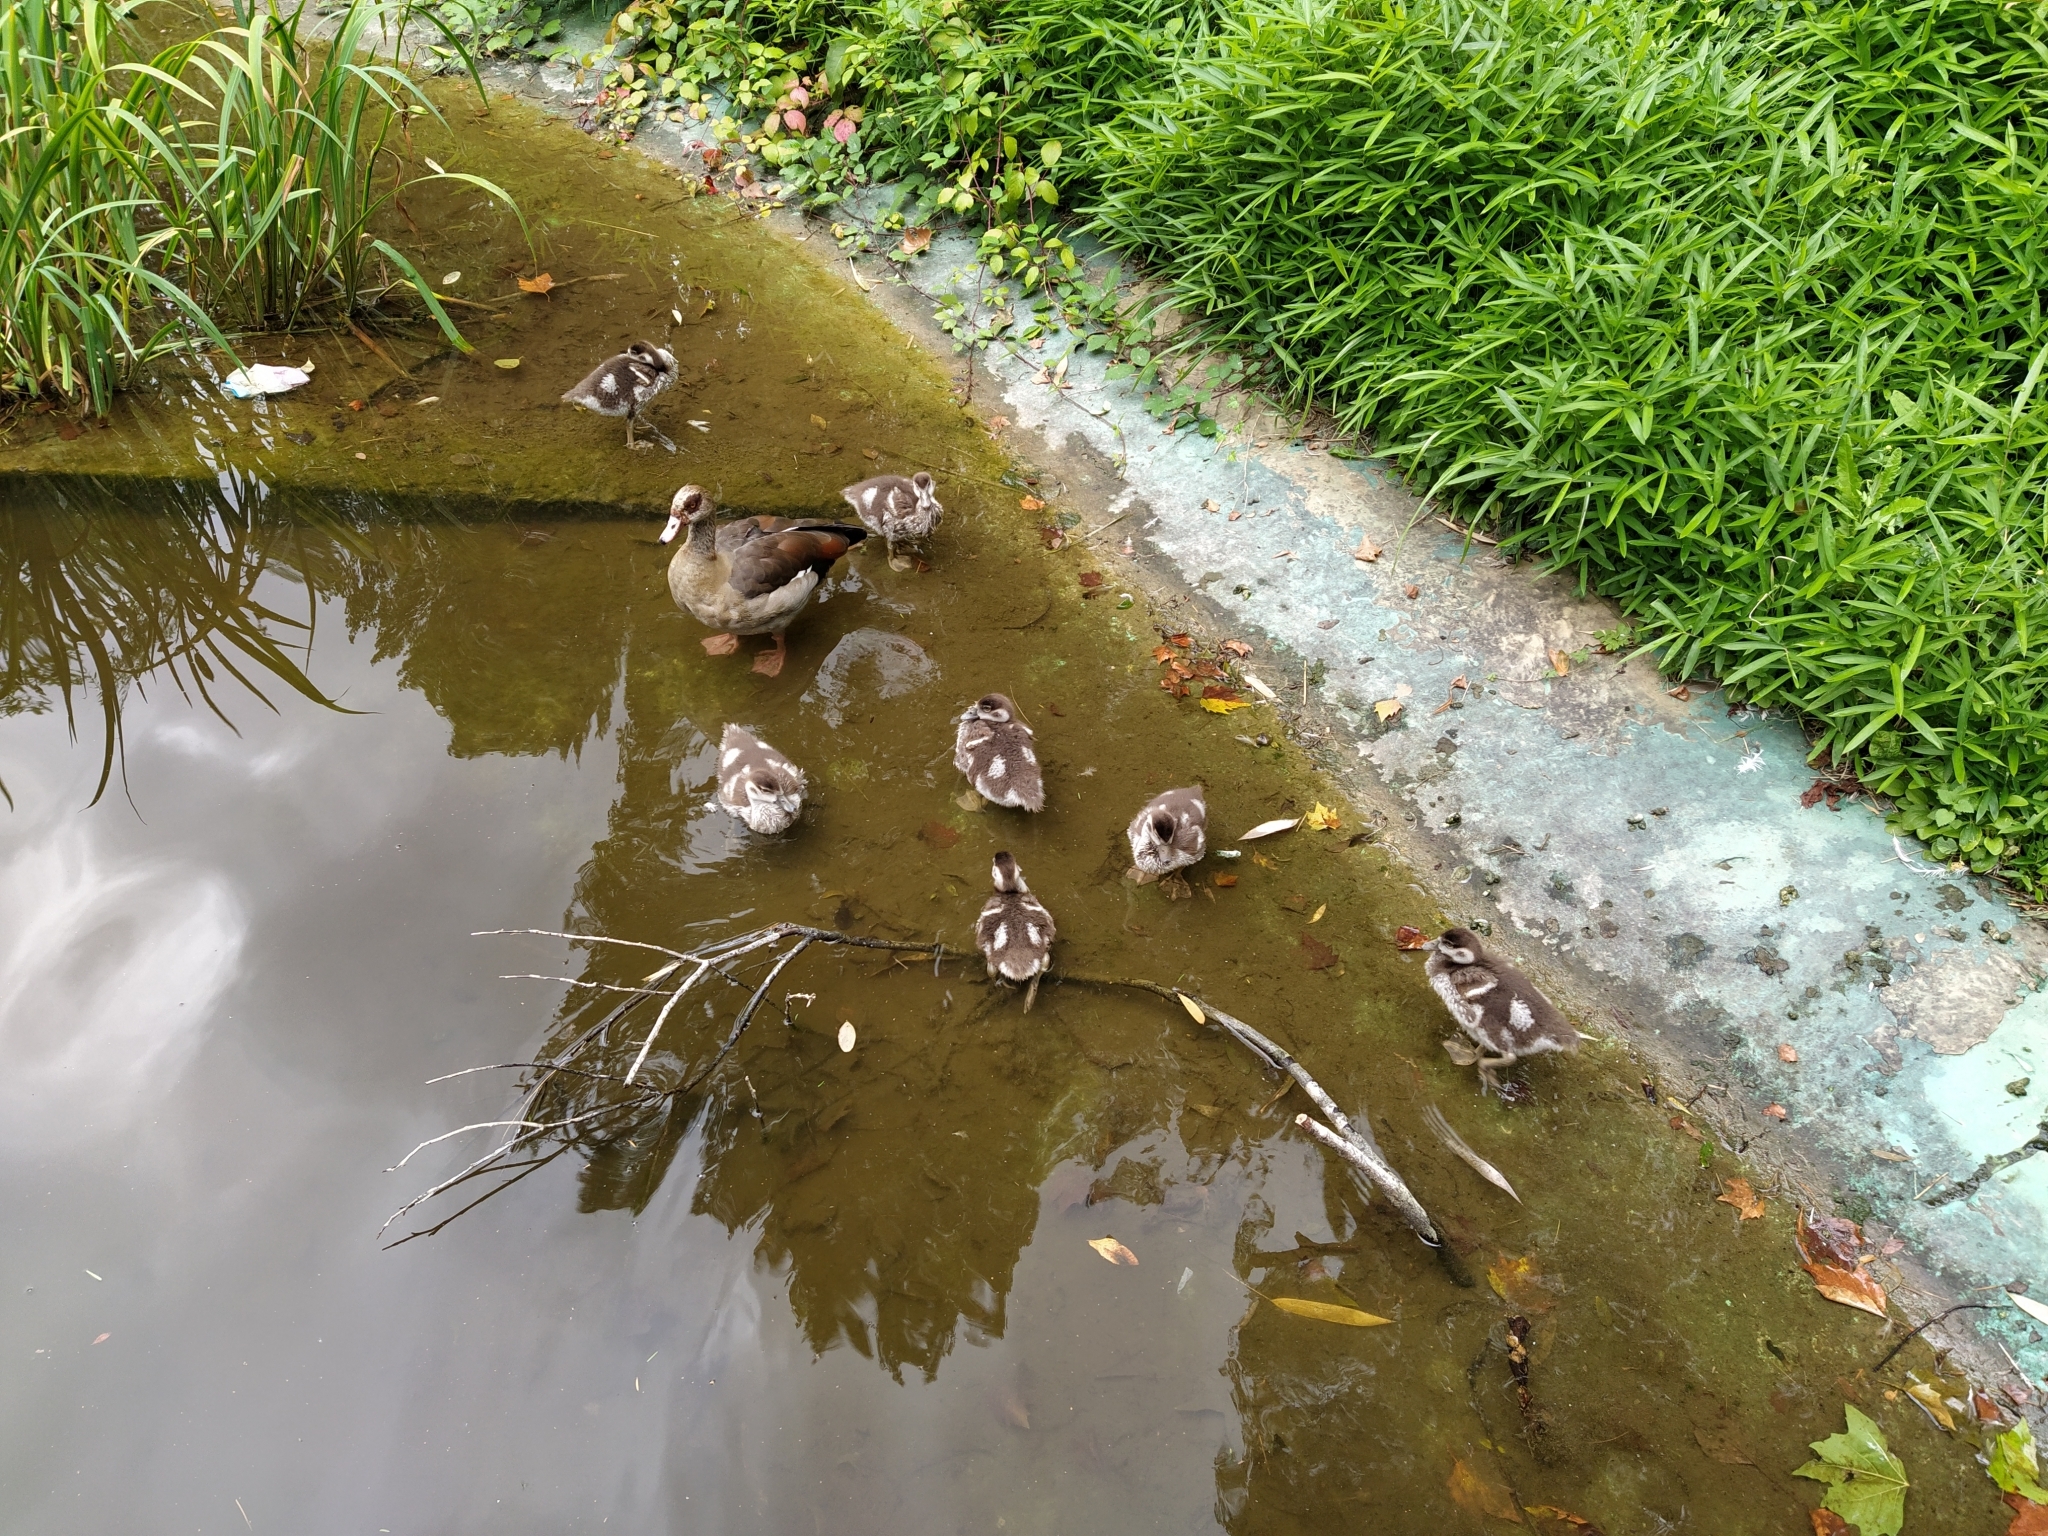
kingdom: Animalia
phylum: Chordata
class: Aves
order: Anseriformes
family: Anatidae
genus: Alopochen
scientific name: Alopochen aegyptiaca
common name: Egyptian goose
